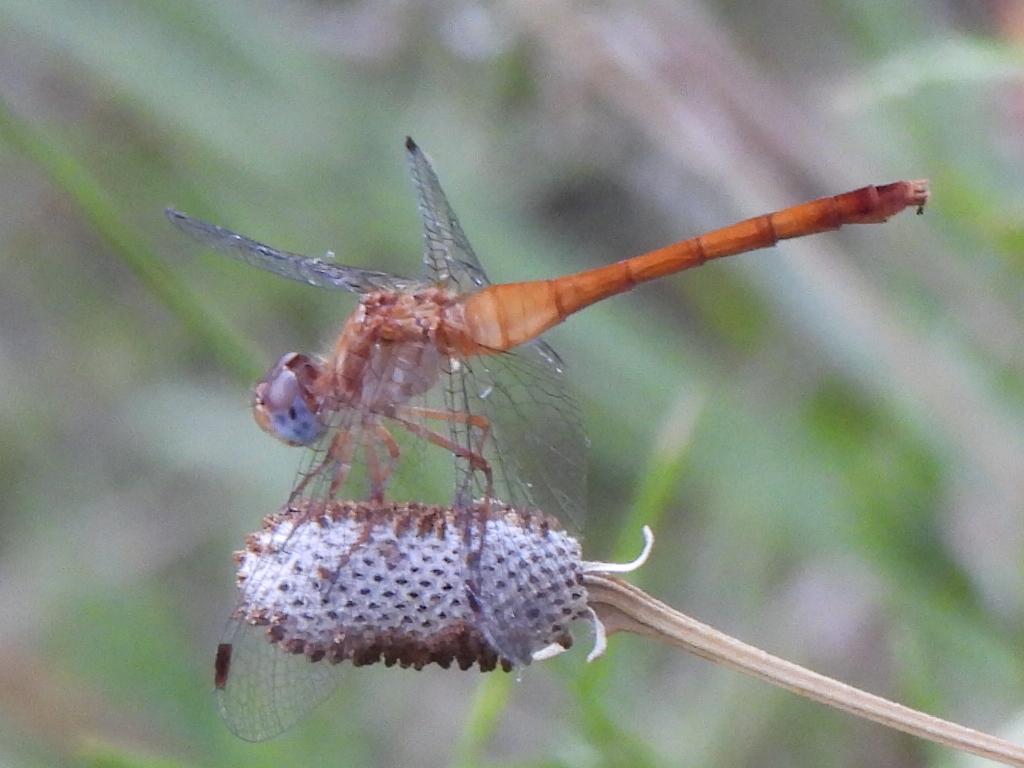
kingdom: Animalia
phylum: Arthropoda
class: Insecta
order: Odonata
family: Libellulidae
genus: Sympetrum
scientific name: Sympetrum vicinum
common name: Autumn meadowhawk
